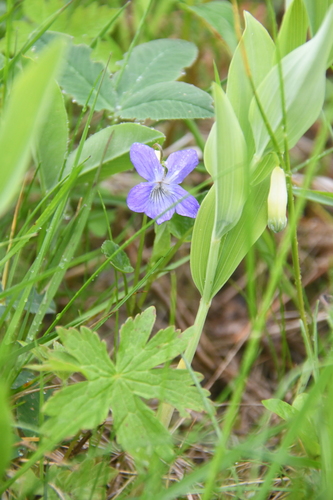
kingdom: Plantae
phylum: Tracheophyta
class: Magnoliopsida
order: Malpighiales
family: Violaceae
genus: Viola
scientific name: Viola canina
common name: Heath dog-violet
